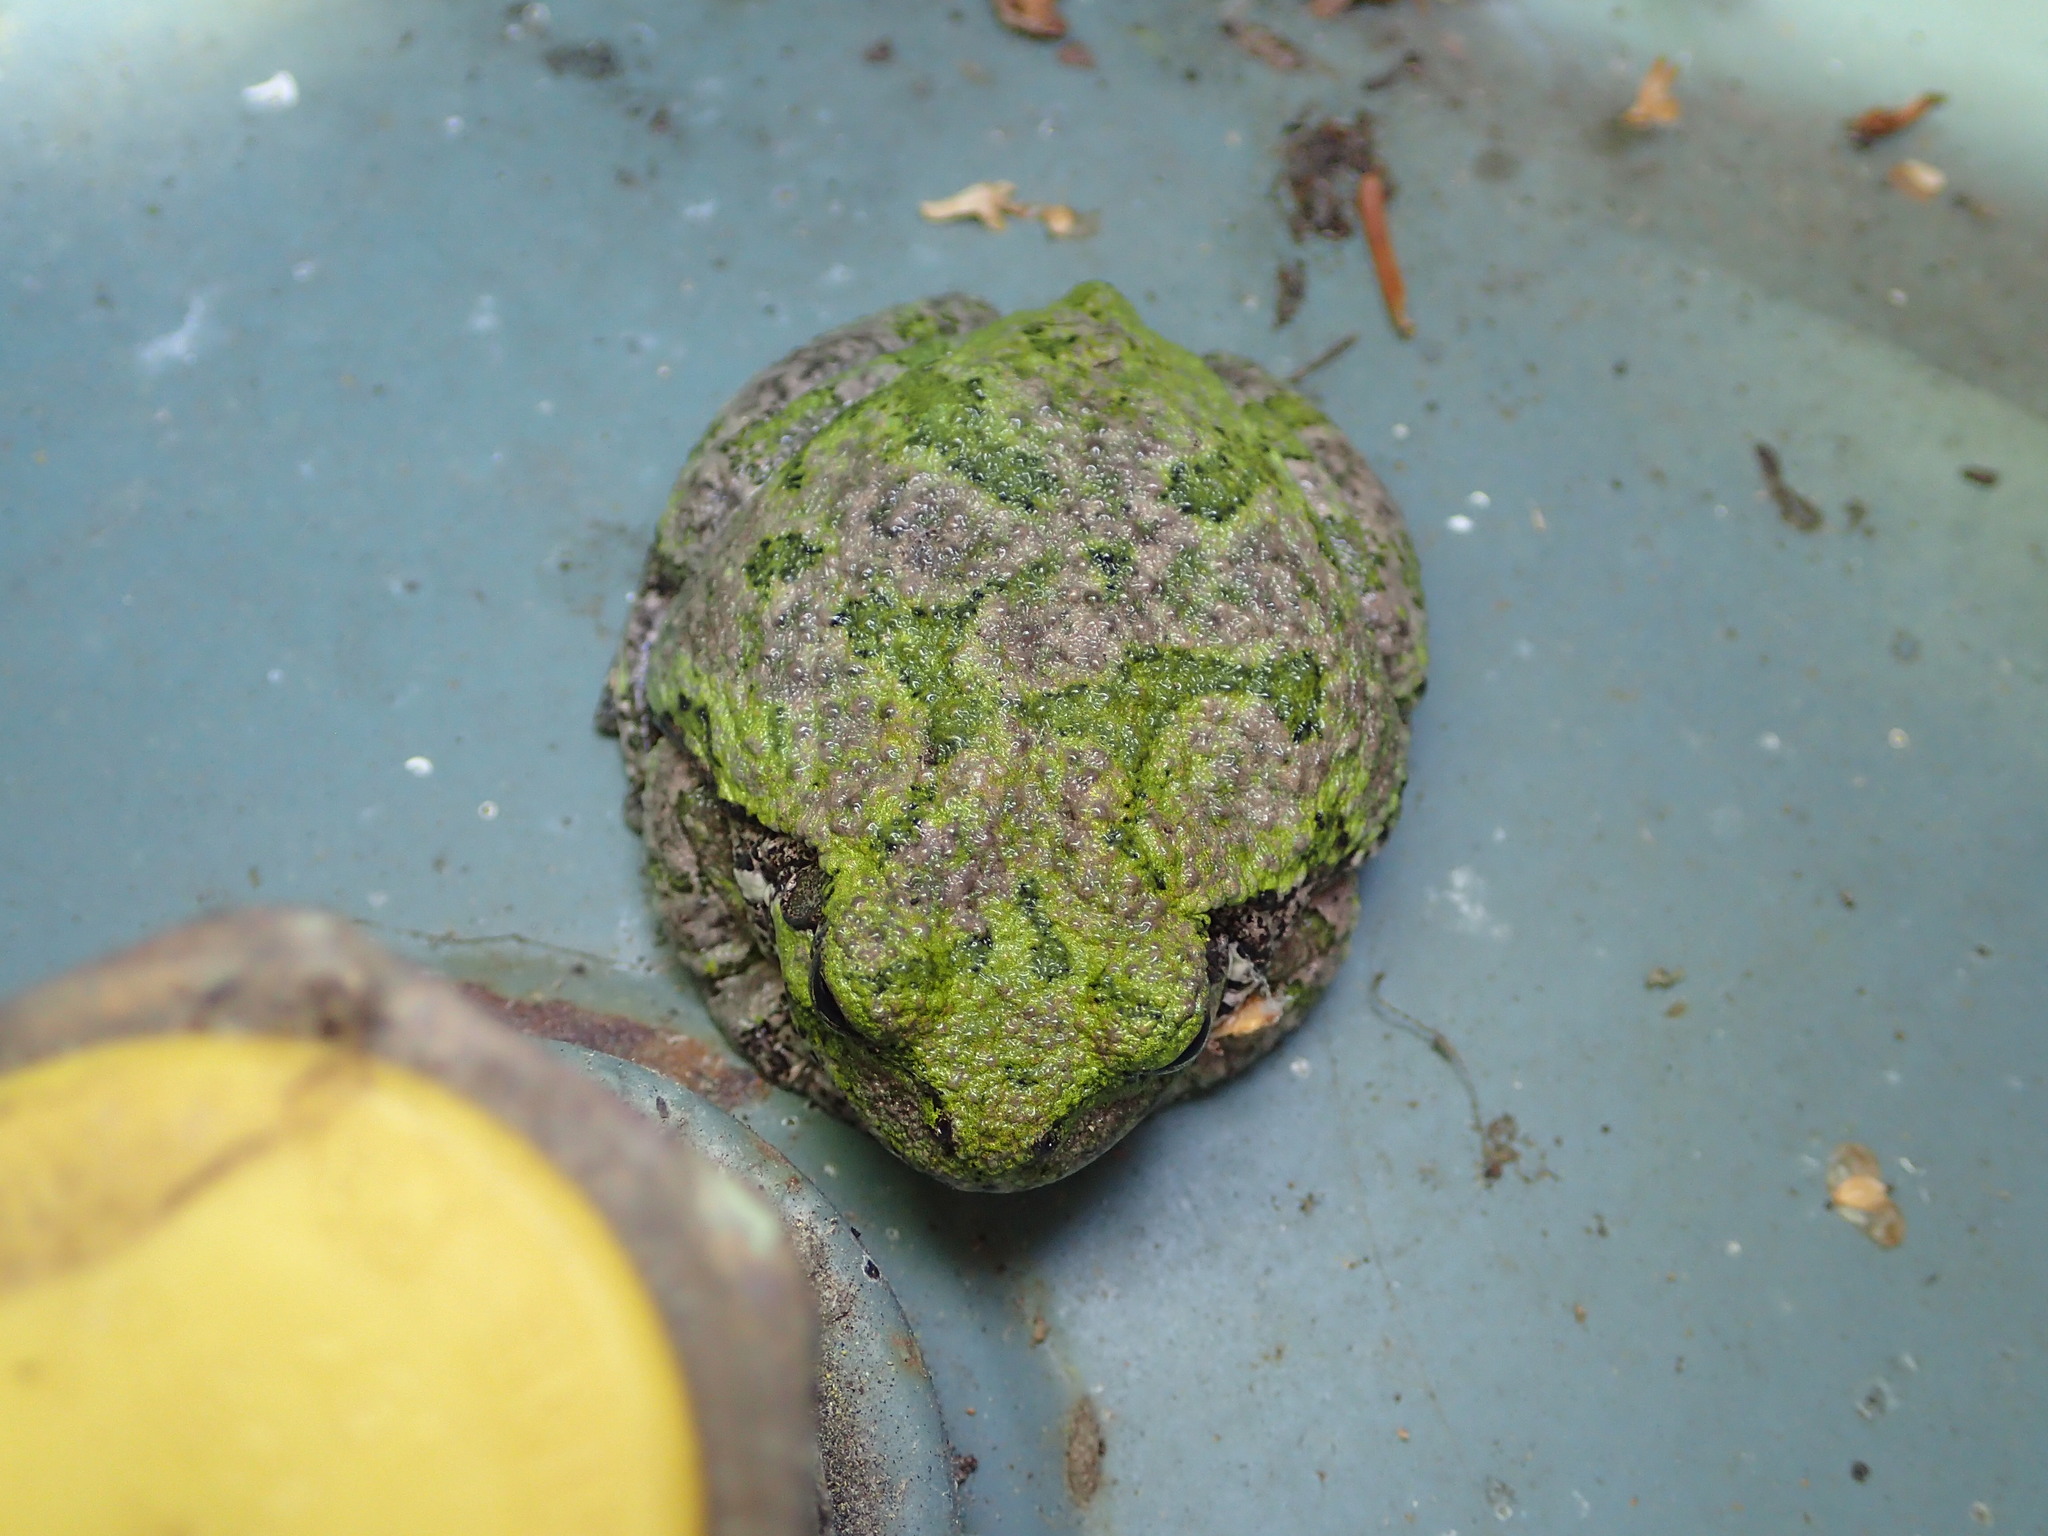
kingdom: Animalia
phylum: Chordata
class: Amphibia
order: Anura
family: Hylidae
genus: Dryophytes
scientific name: Dryophytes versicolor
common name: Gray treefrog
